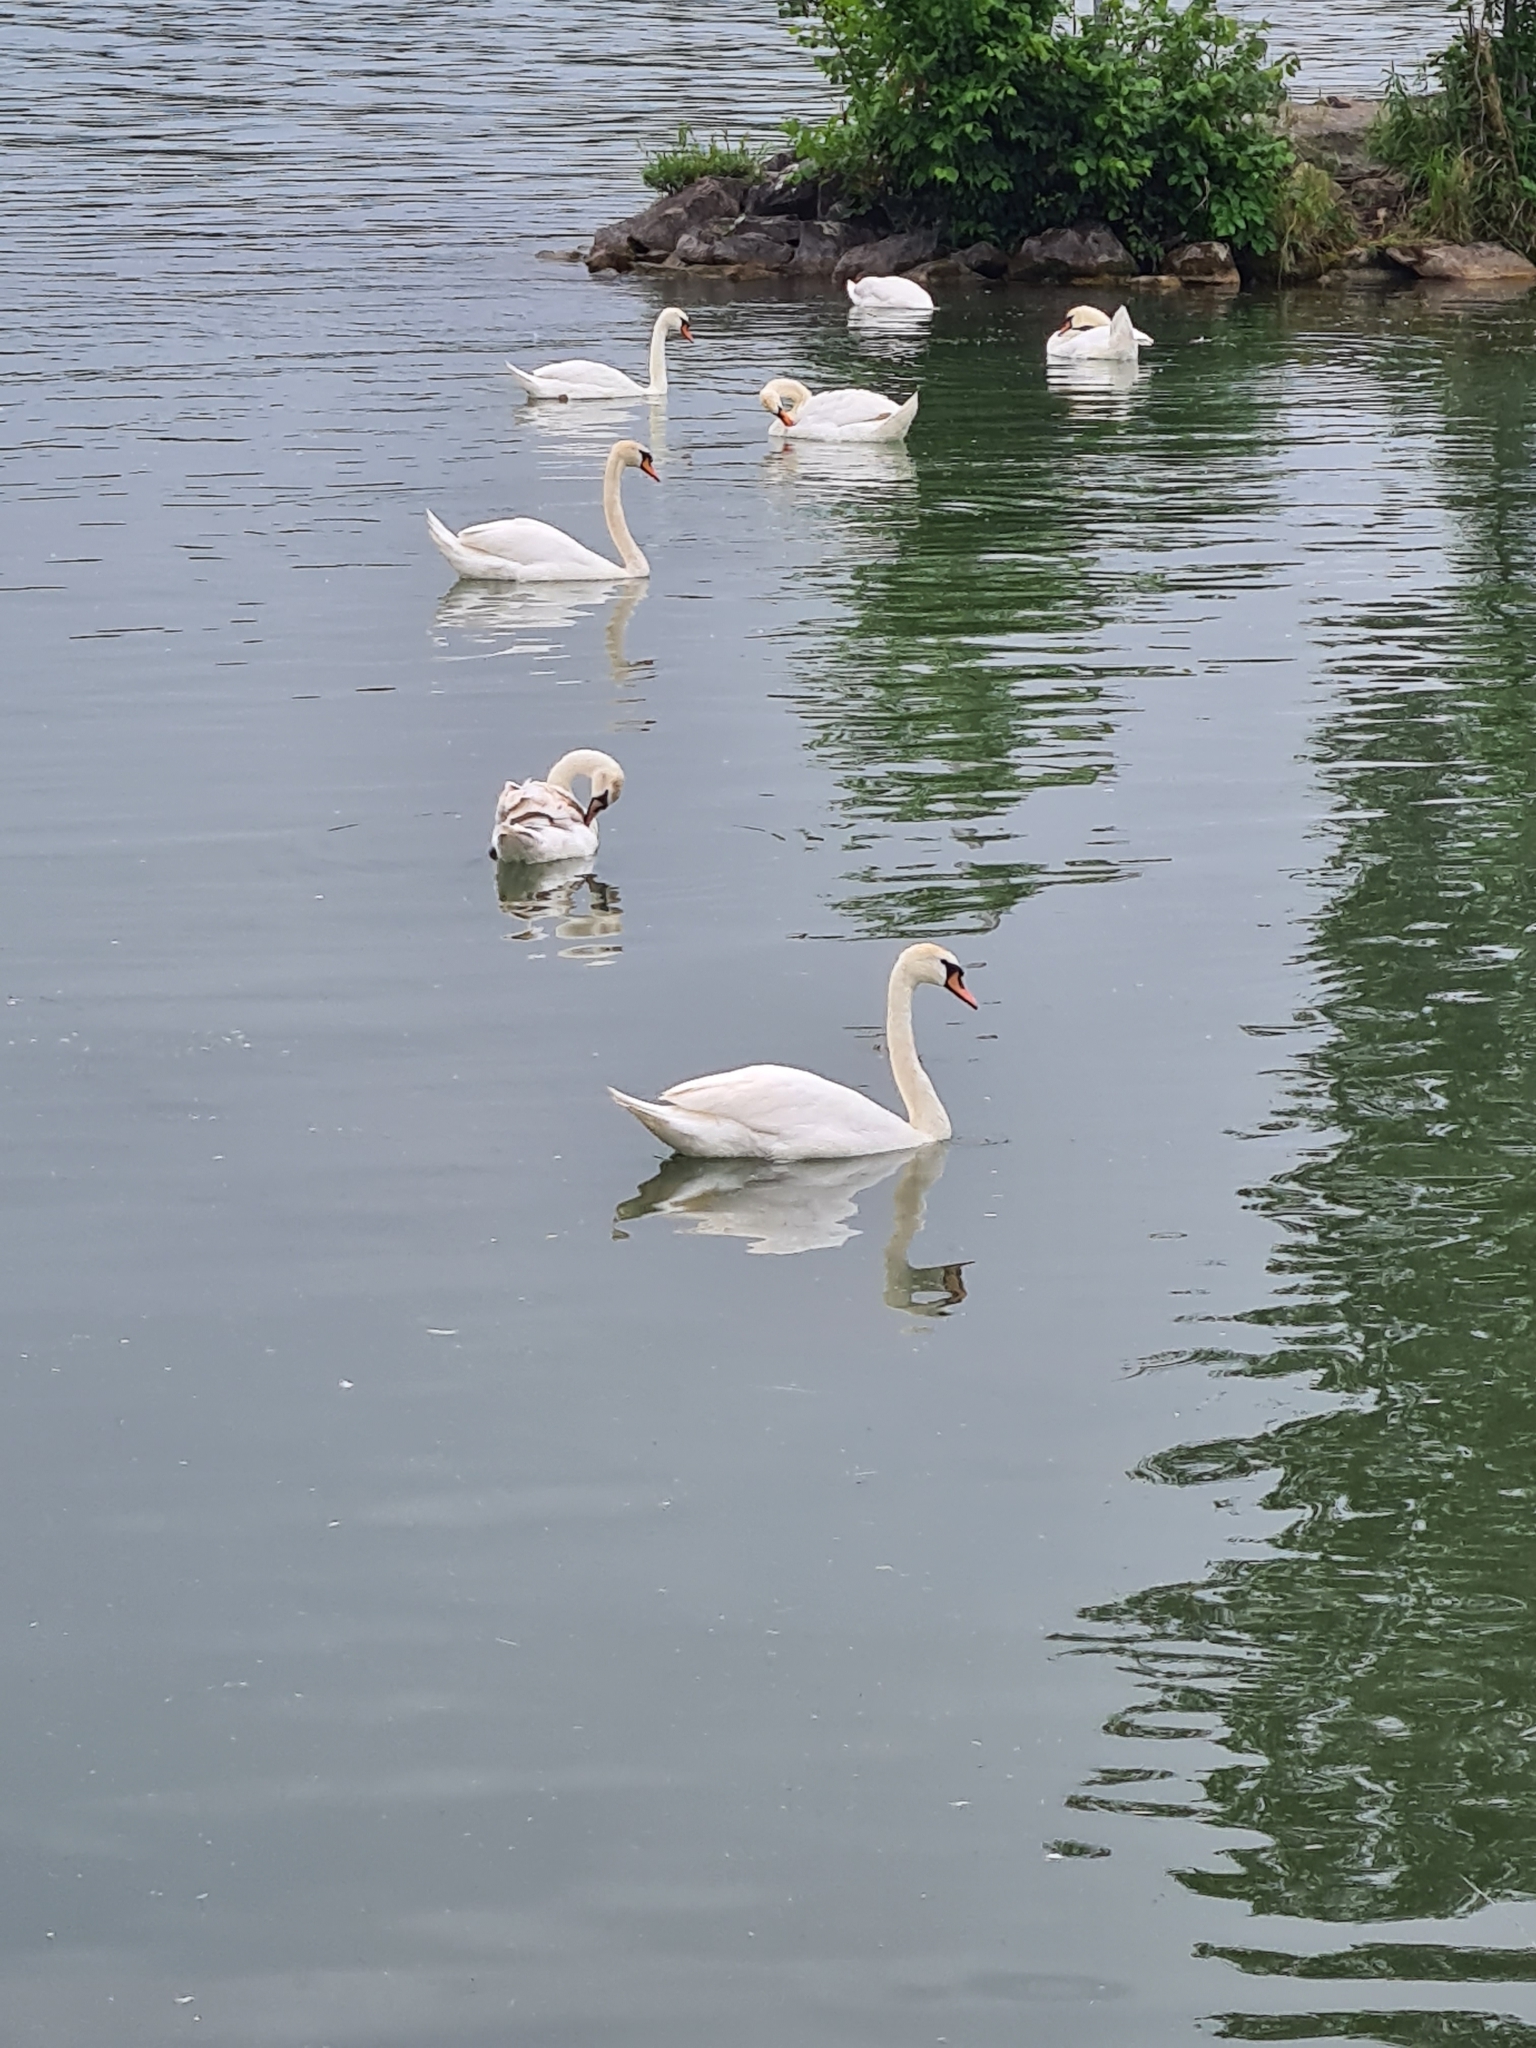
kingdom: Animalia
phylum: Chordata
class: Aves
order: Anseriformes
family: Anatidae
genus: Cygnus
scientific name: Cygnus olor
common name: Mute swan
